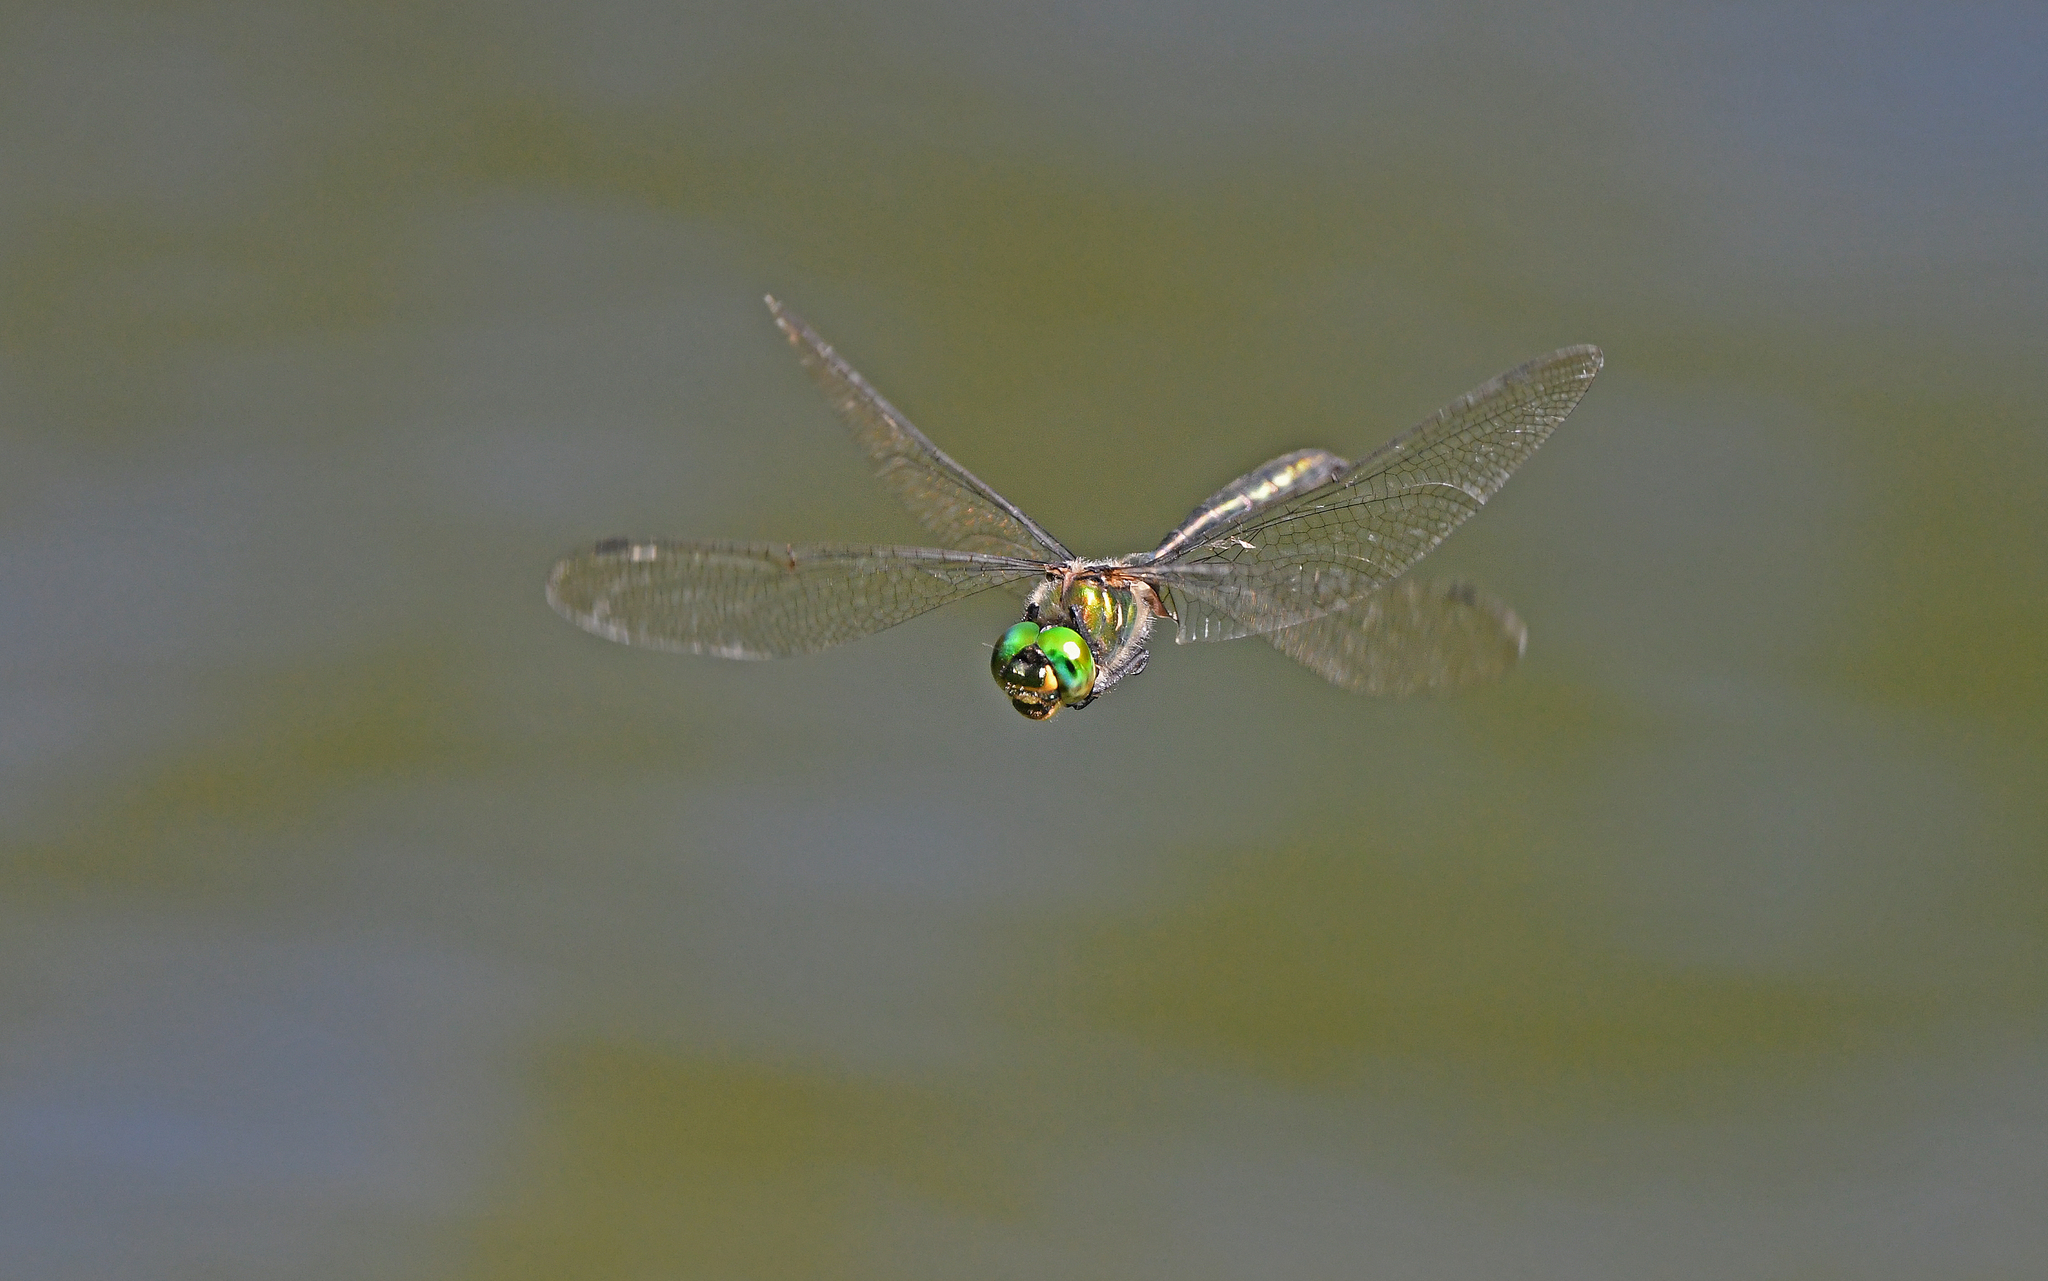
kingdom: Animalia
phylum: Arthropoda
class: Insecta
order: Odonata
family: Corduliidae
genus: Somatochlora
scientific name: Somatochlora meridionalis
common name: Balkan emerald
